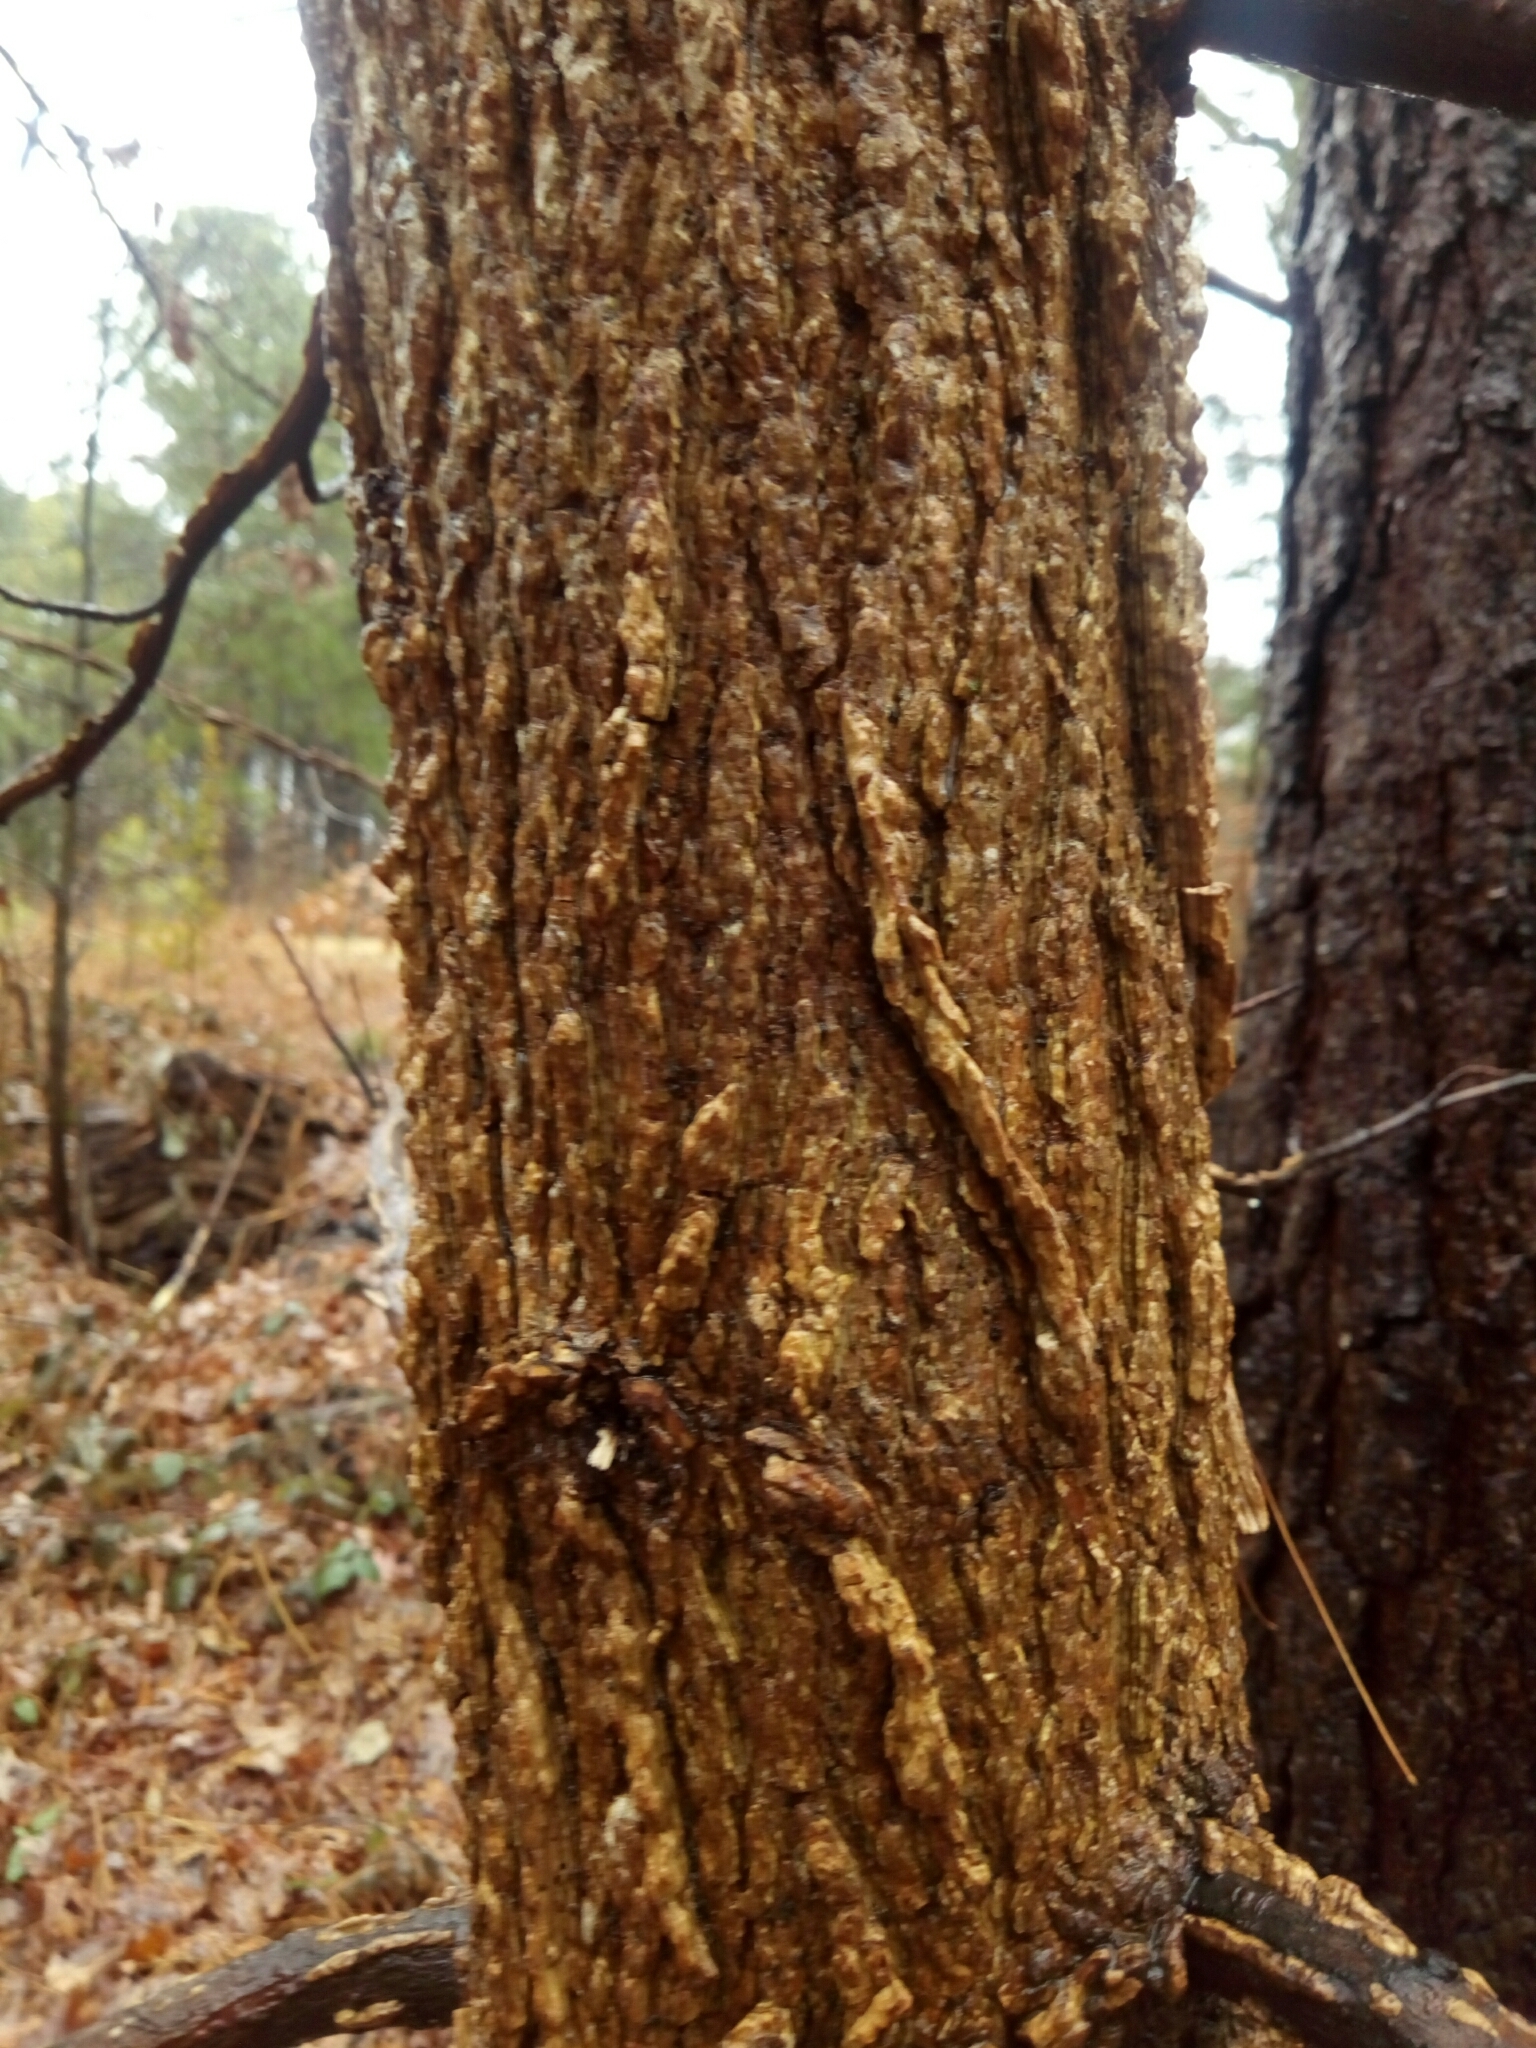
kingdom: Plantae
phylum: Tracheophyta
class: Magnoliopsida
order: Rosales
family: Ulmaceae
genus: Ulmus
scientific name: Ulmus alata
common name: Winged elm
